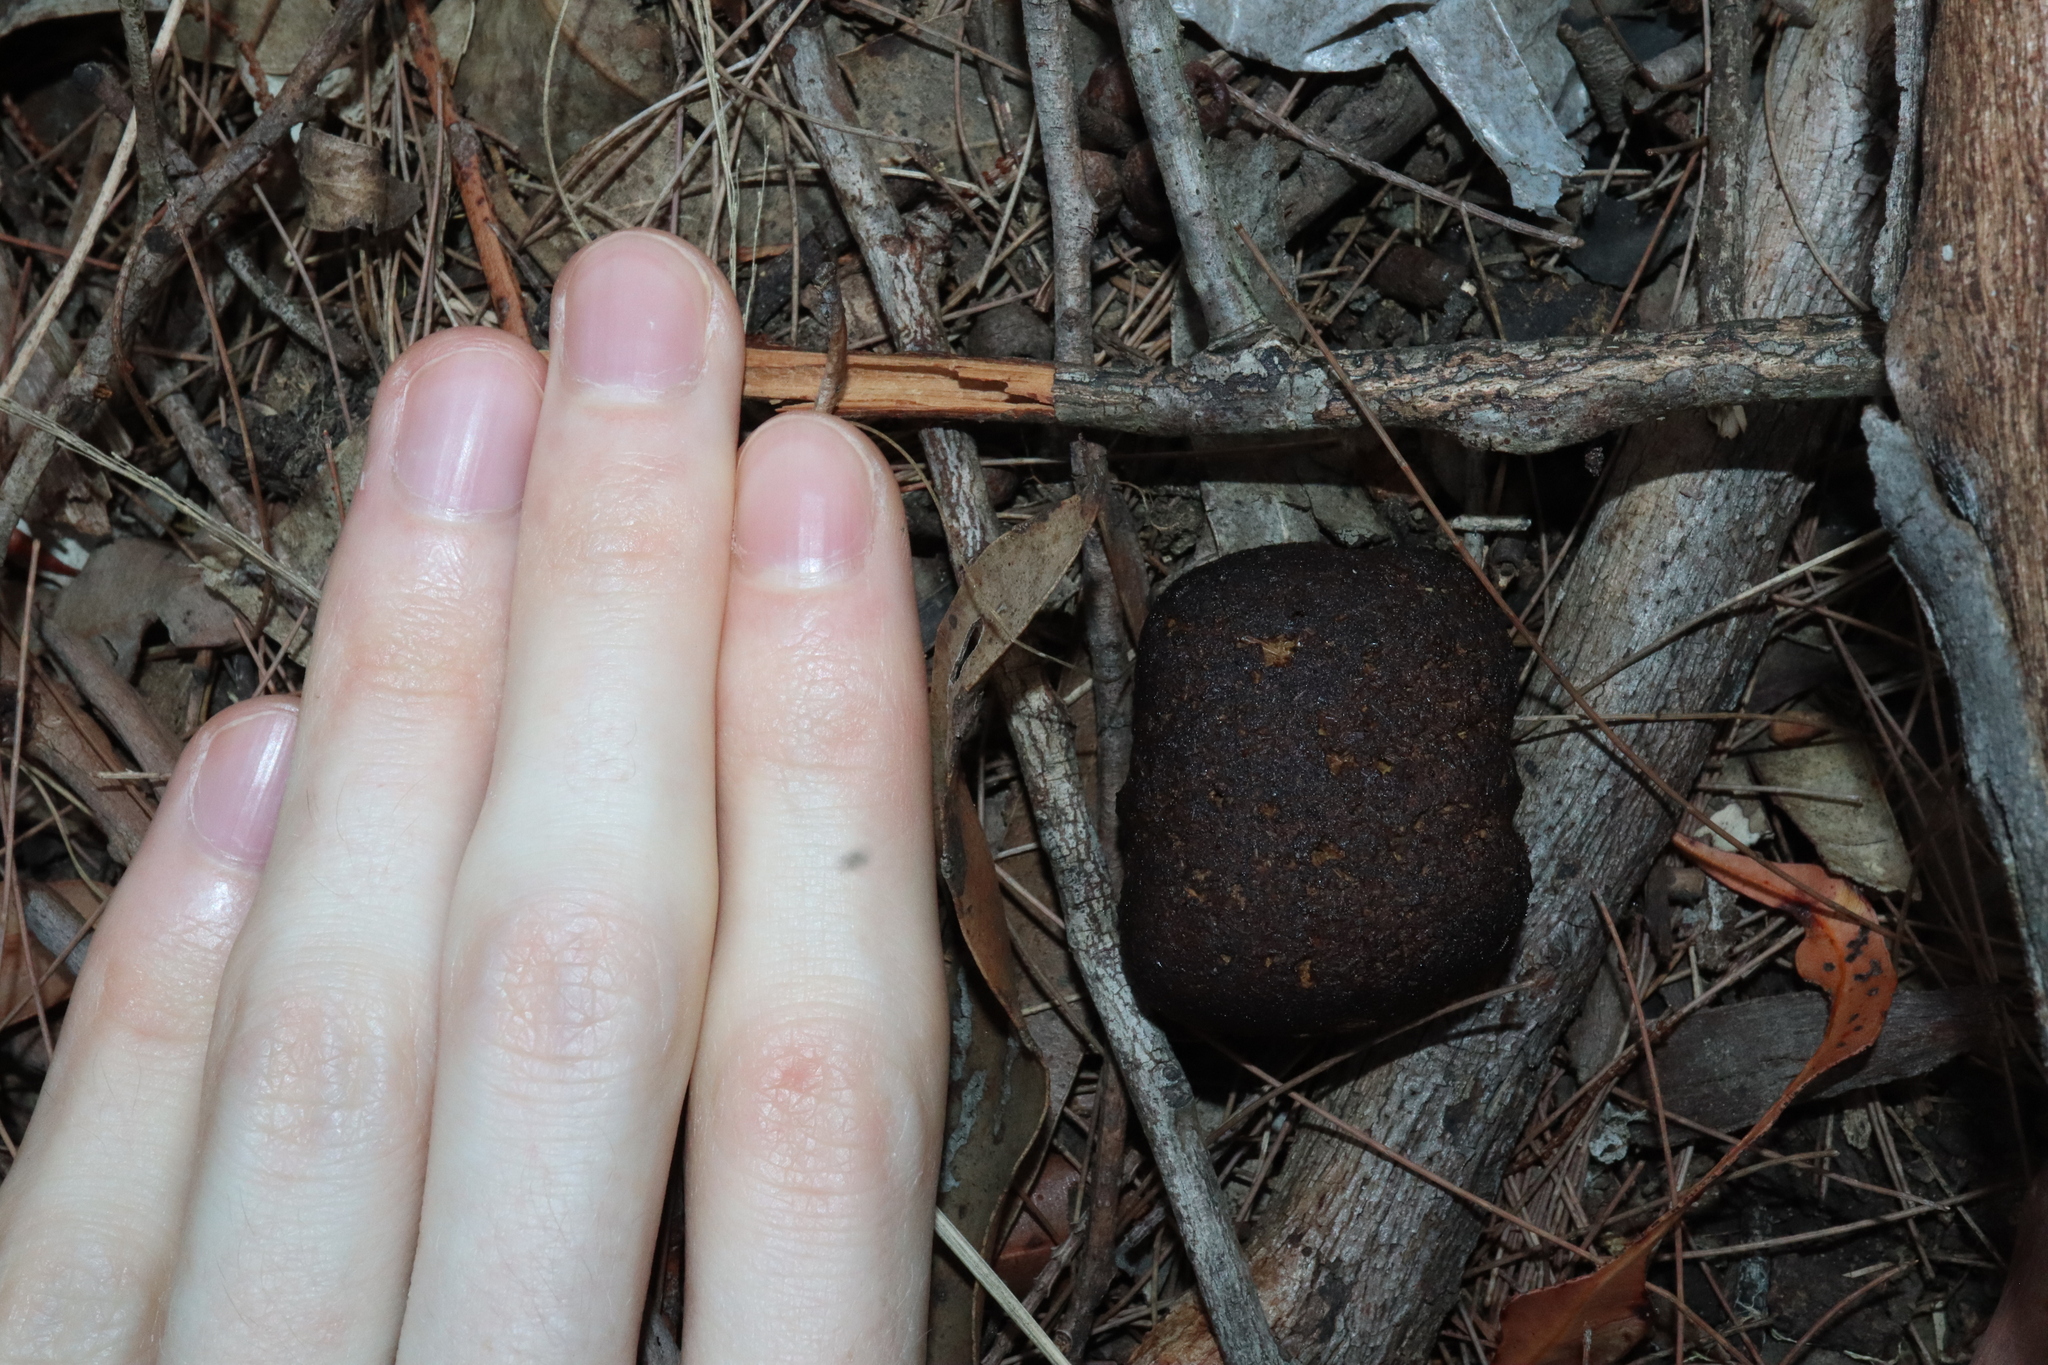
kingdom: Animalia
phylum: Chordata
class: Mammalia
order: Diprotodontia
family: Vombatidae
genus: Vombatus
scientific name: Vombatus ursinus
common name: Common wombat
